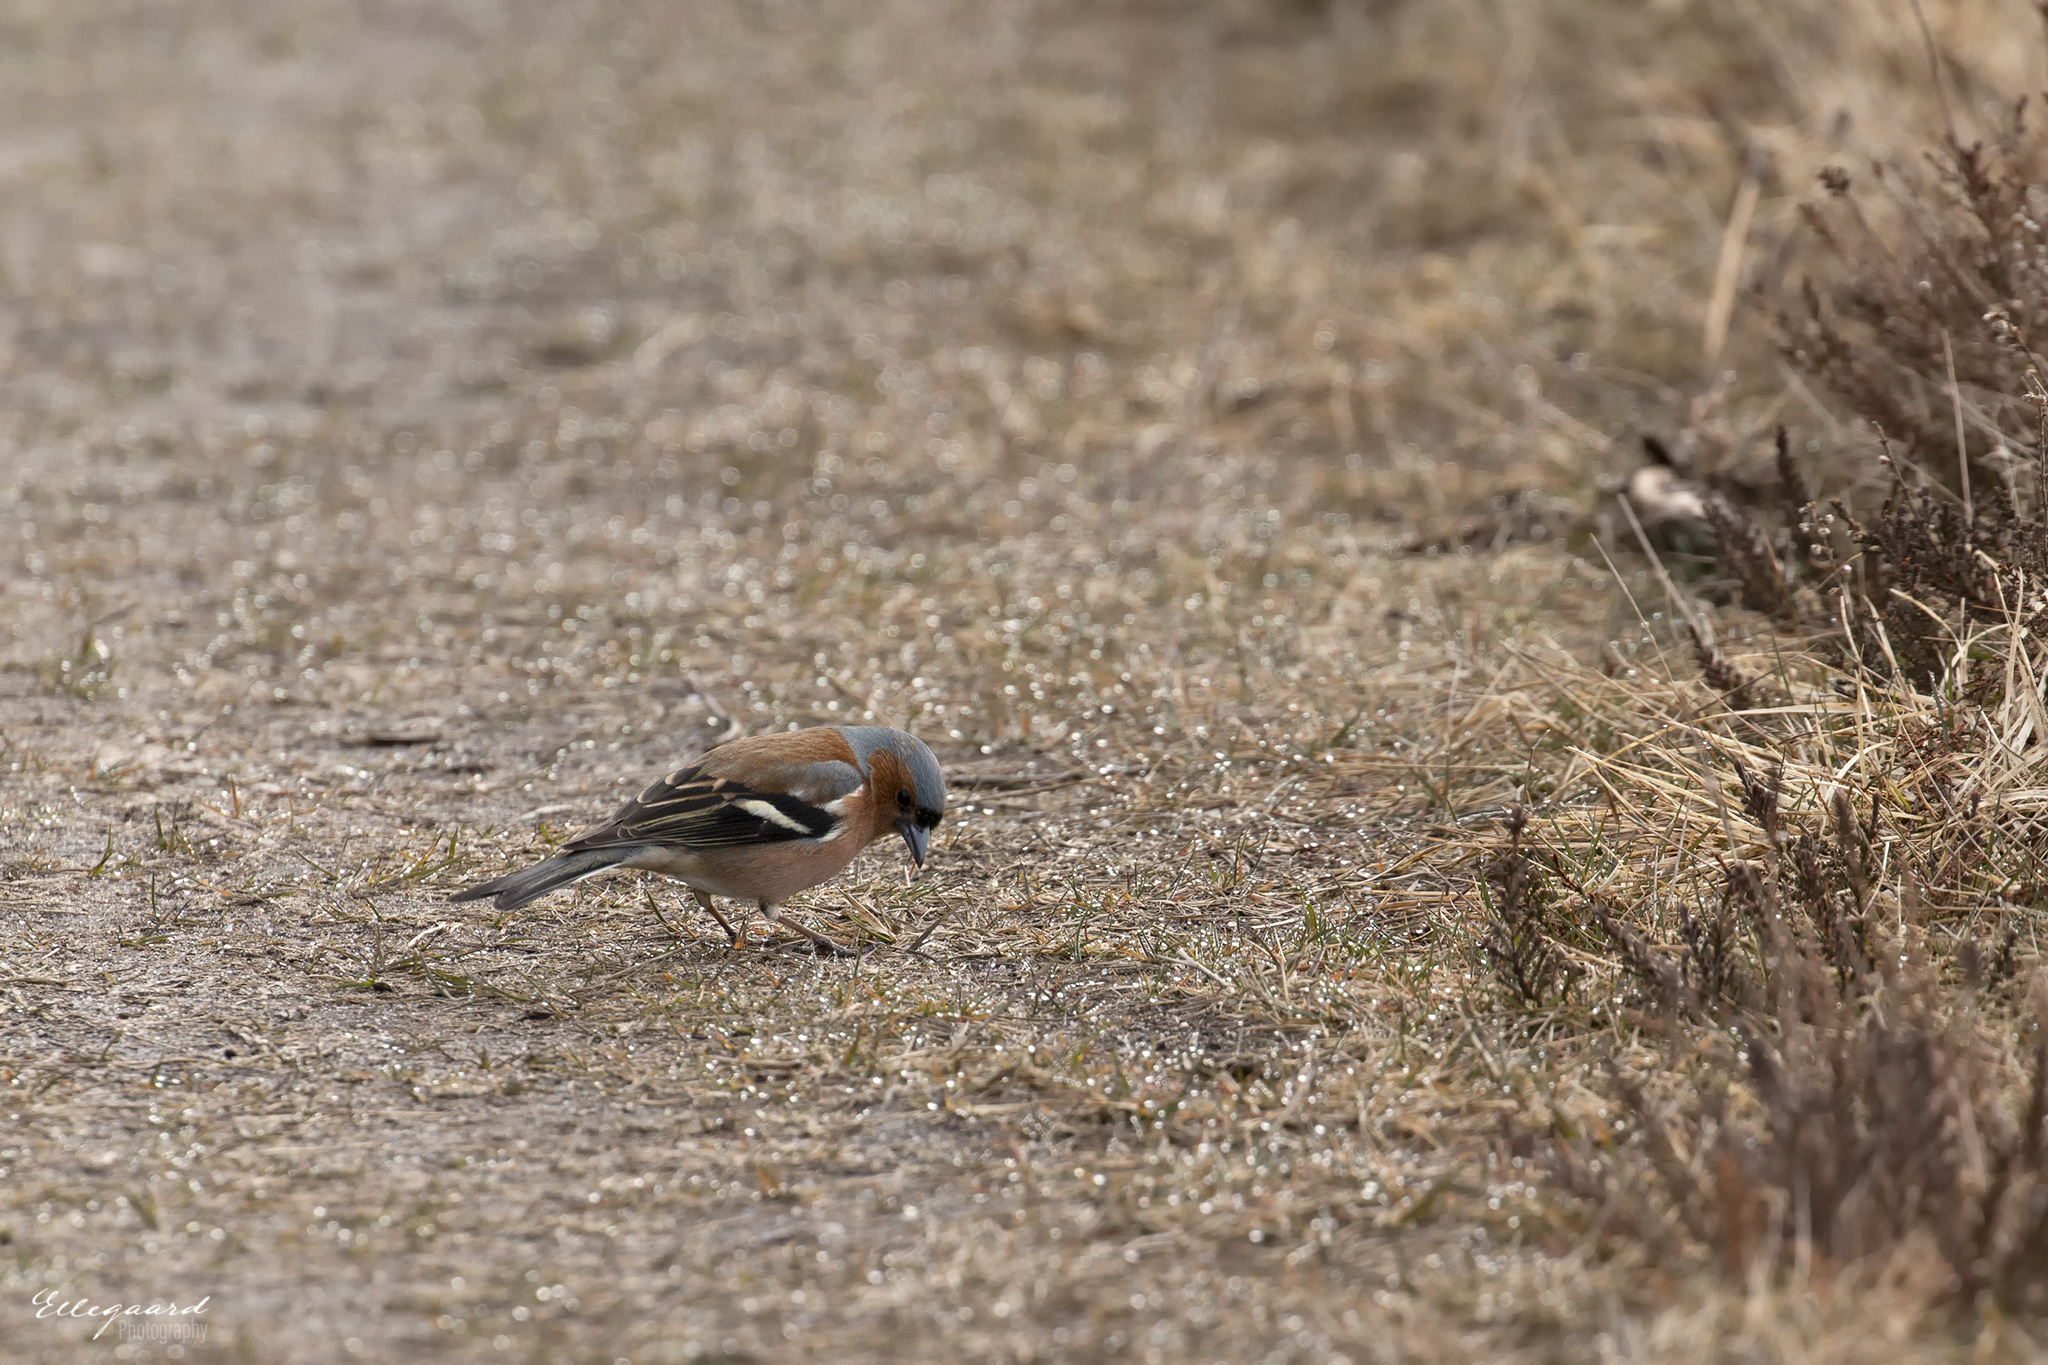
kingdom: Animalia
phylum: Chordata
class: Aves
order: Passeriformes
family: Fringillidae
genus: Fringilla
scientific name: Fringilla coelebs
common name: Common chaffinch
